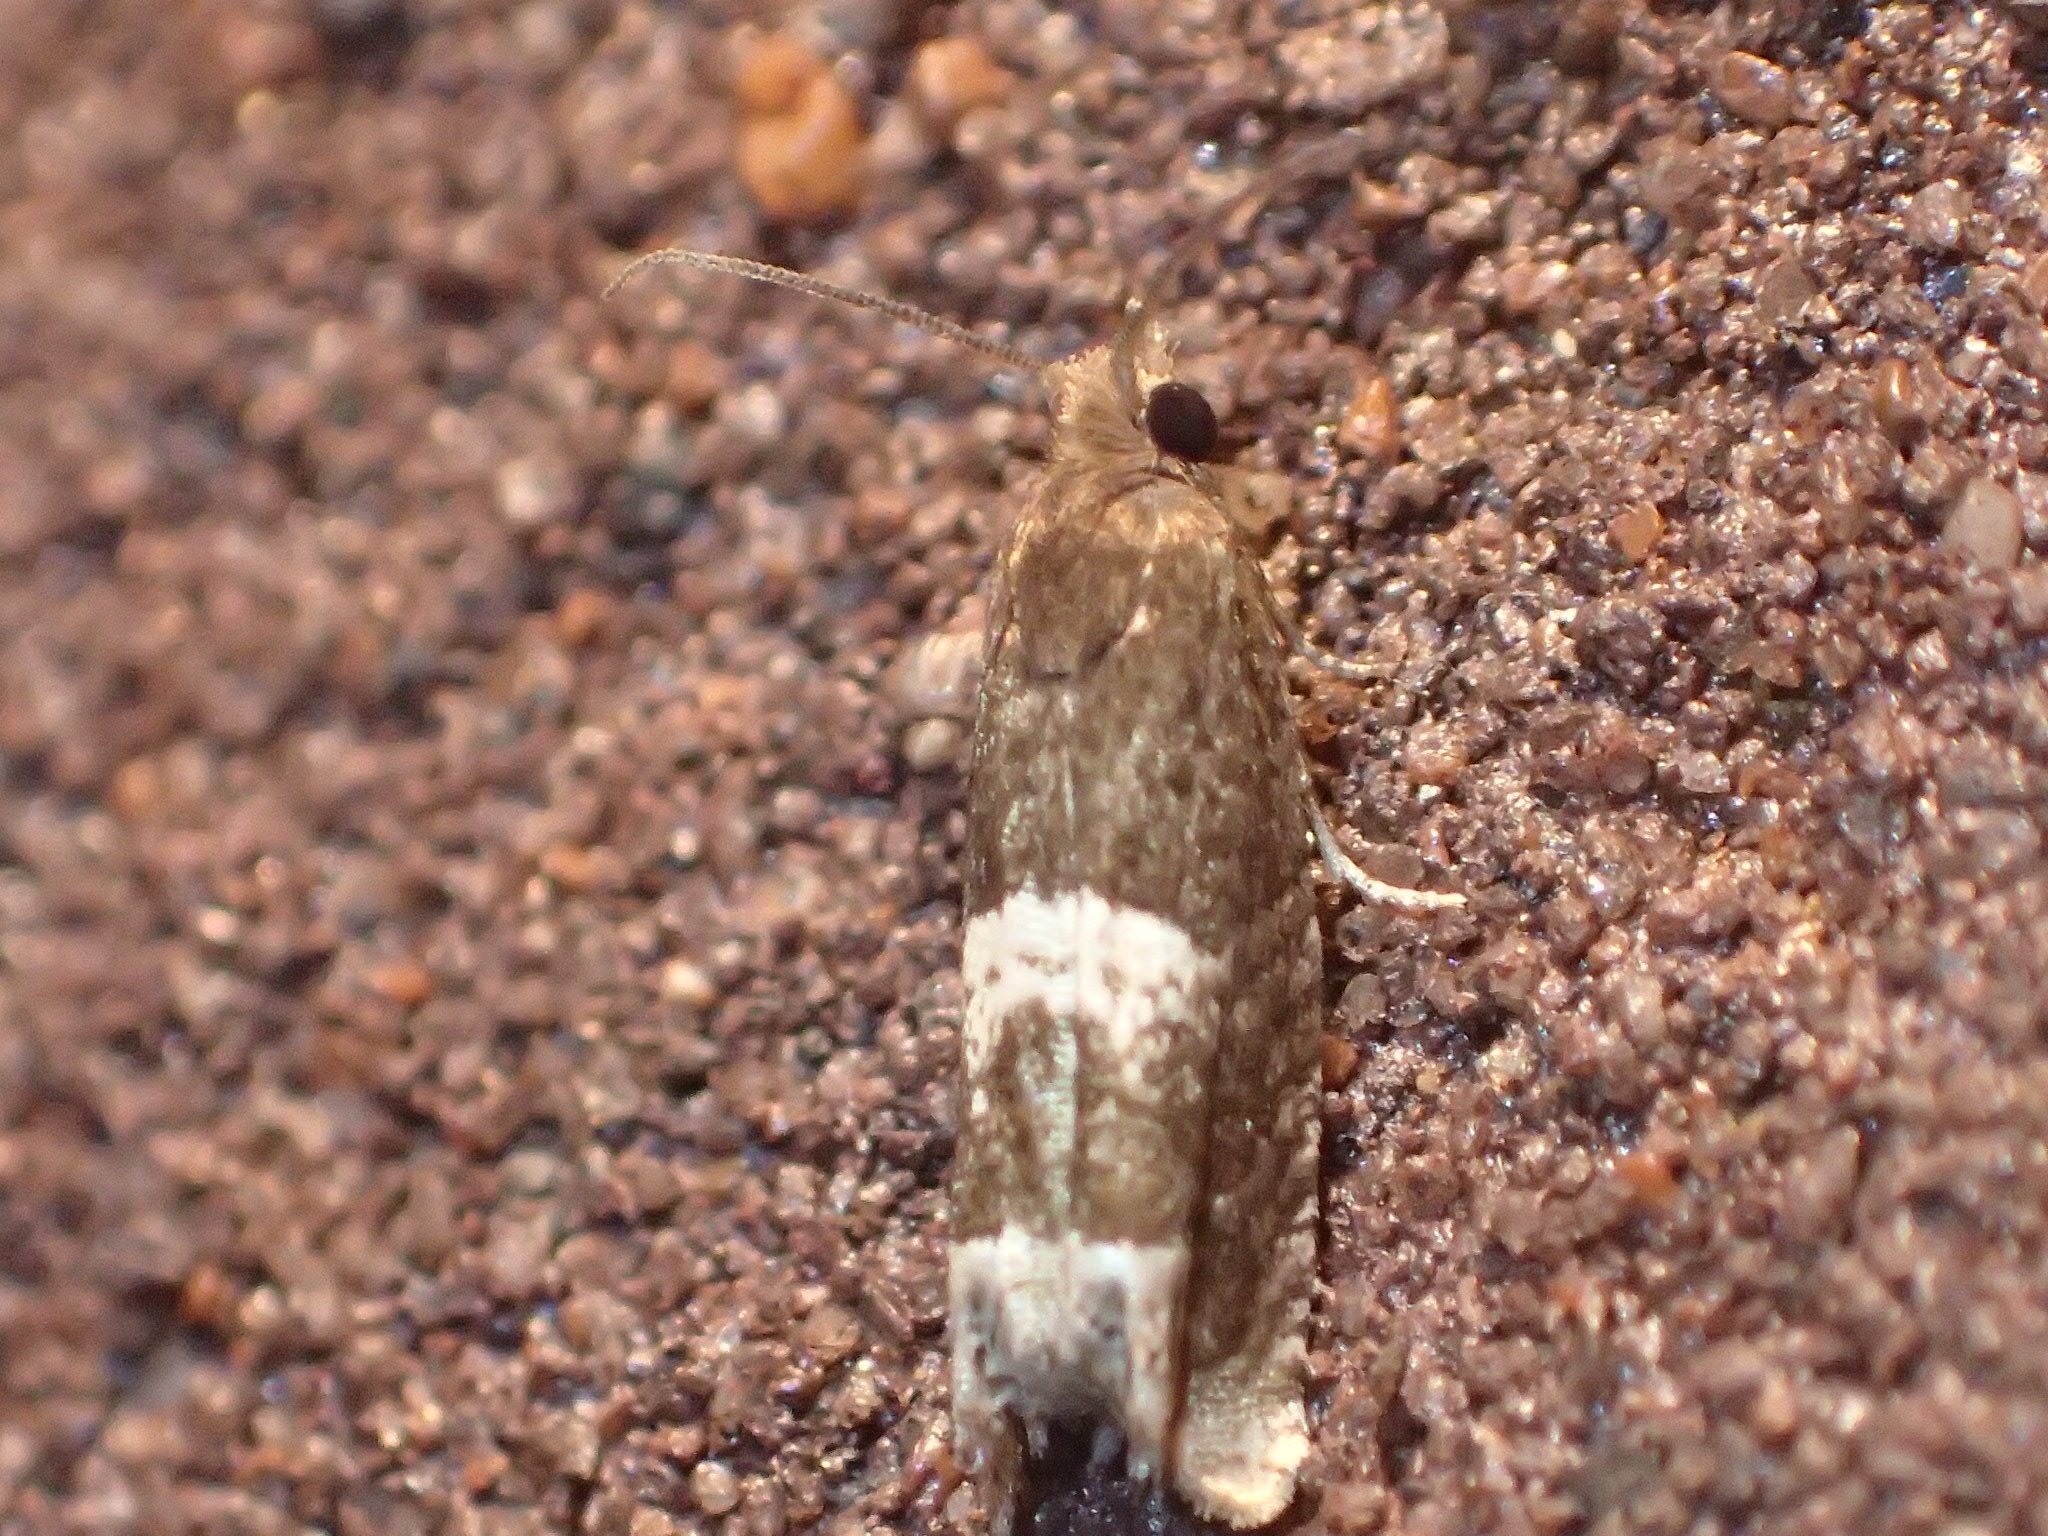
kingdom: Animalia
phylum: Arthropoda
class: Insecta
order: Lepidoptera
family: Tortricidae
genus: Eucosma
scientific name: Eucosma parmatana
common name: Aster eucosma moth
